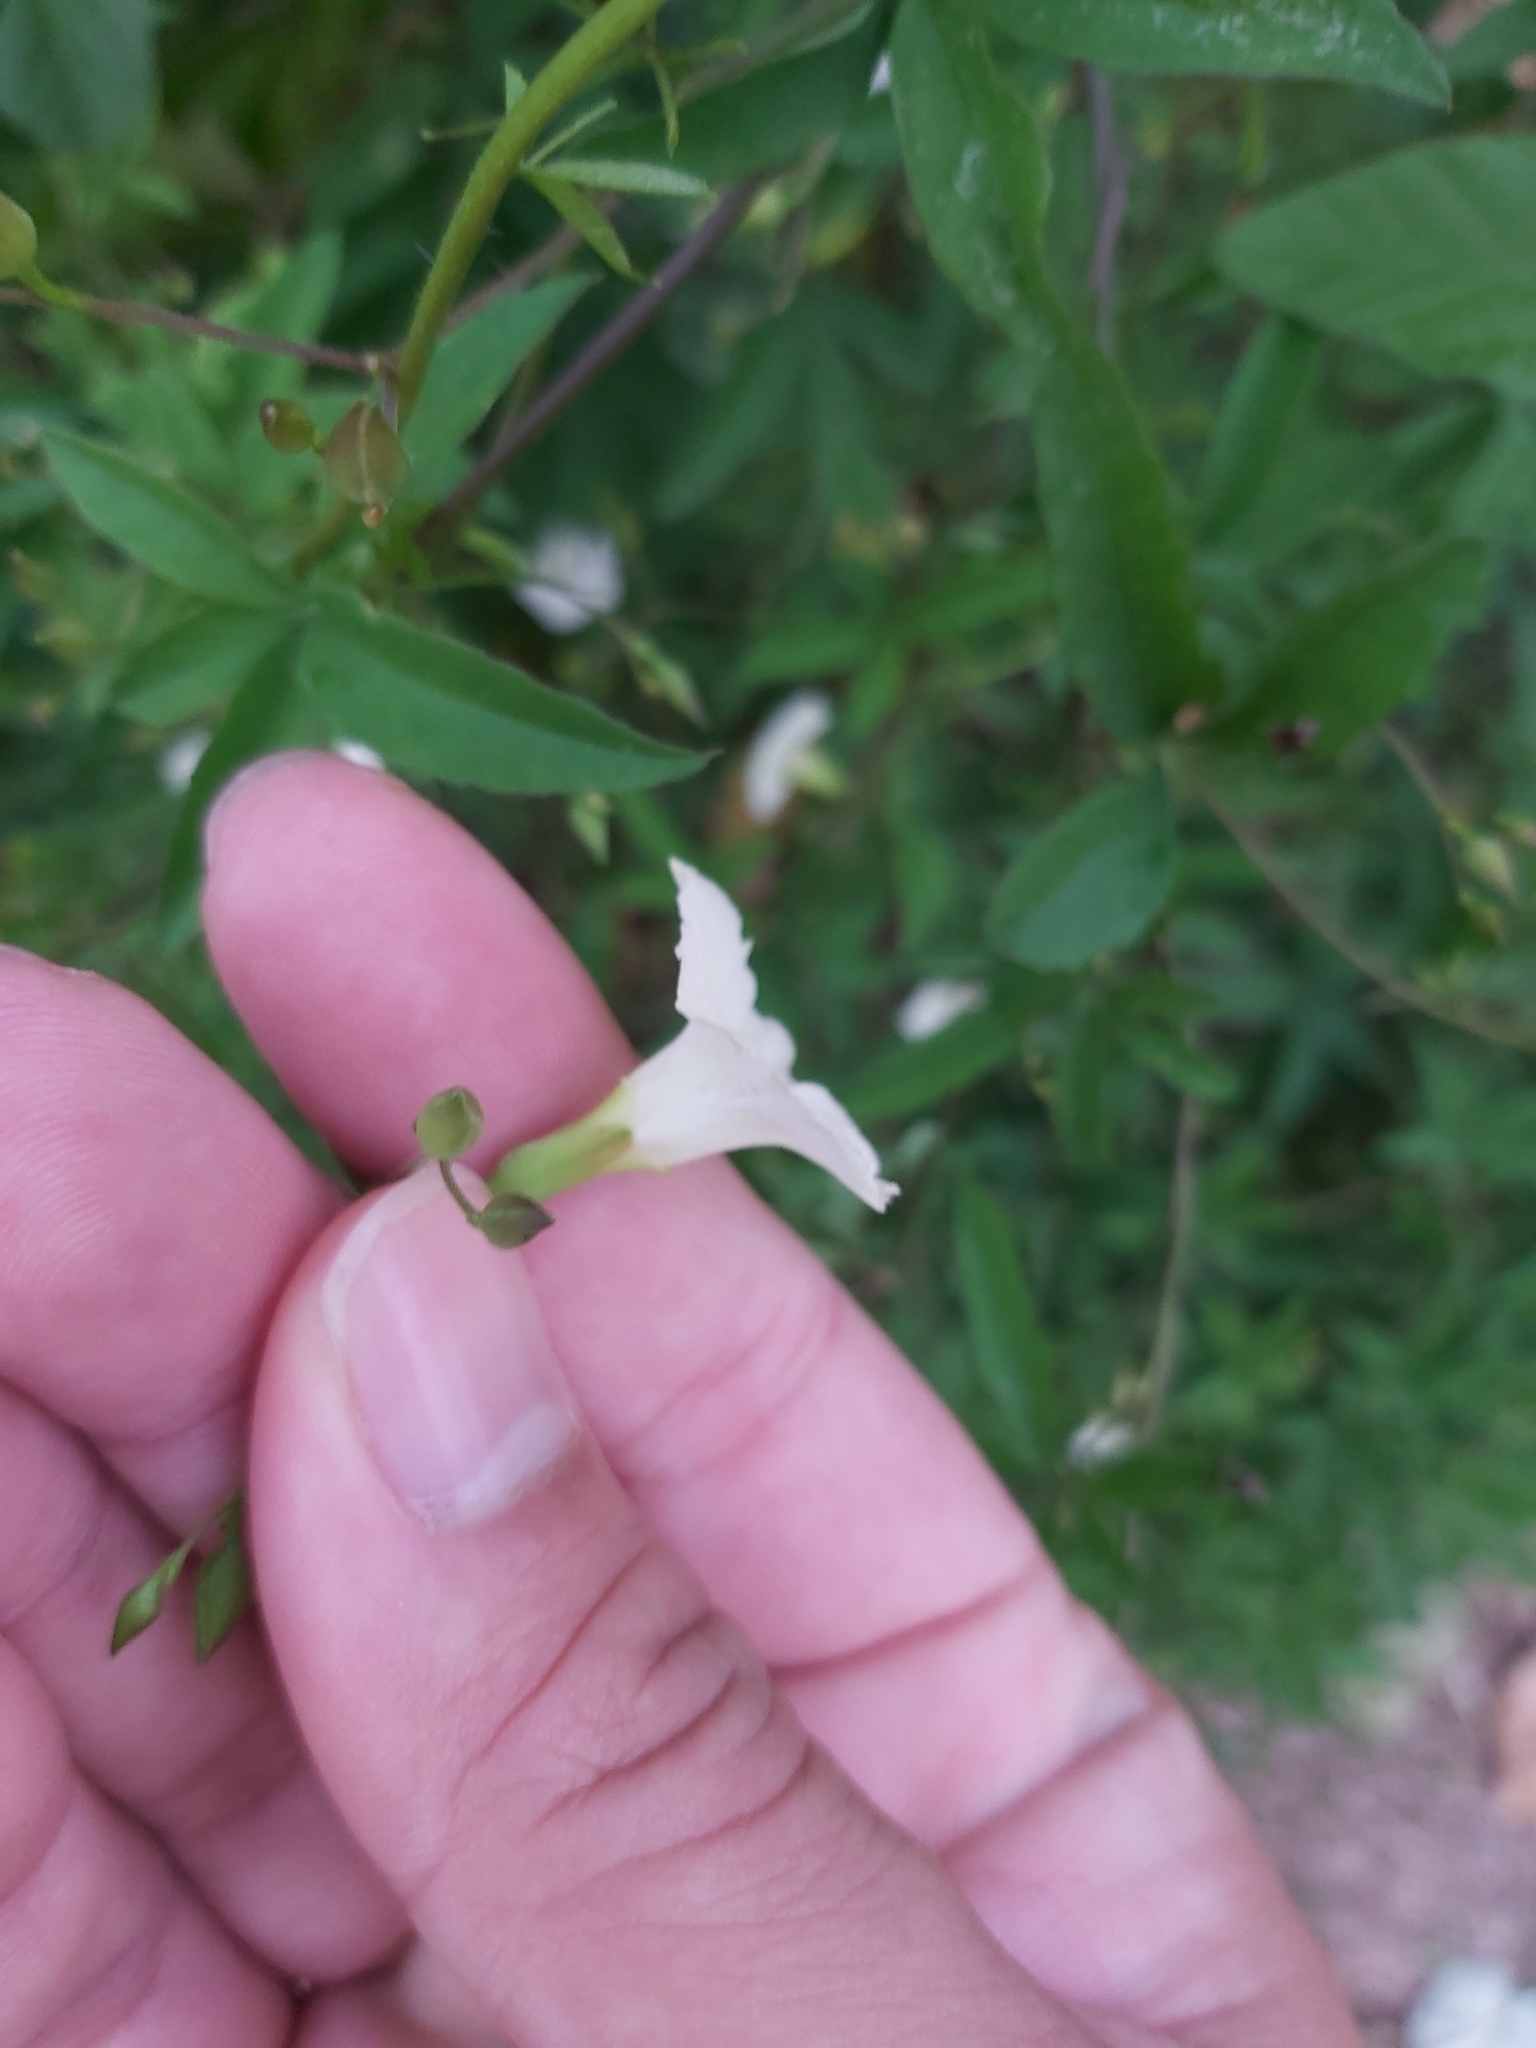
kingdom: Plantae
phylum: Tracheophyta
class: Magnoliopsida
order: Solanales
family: Convolvulaceae
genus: Distimake
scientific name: Distimake quinquefolius
